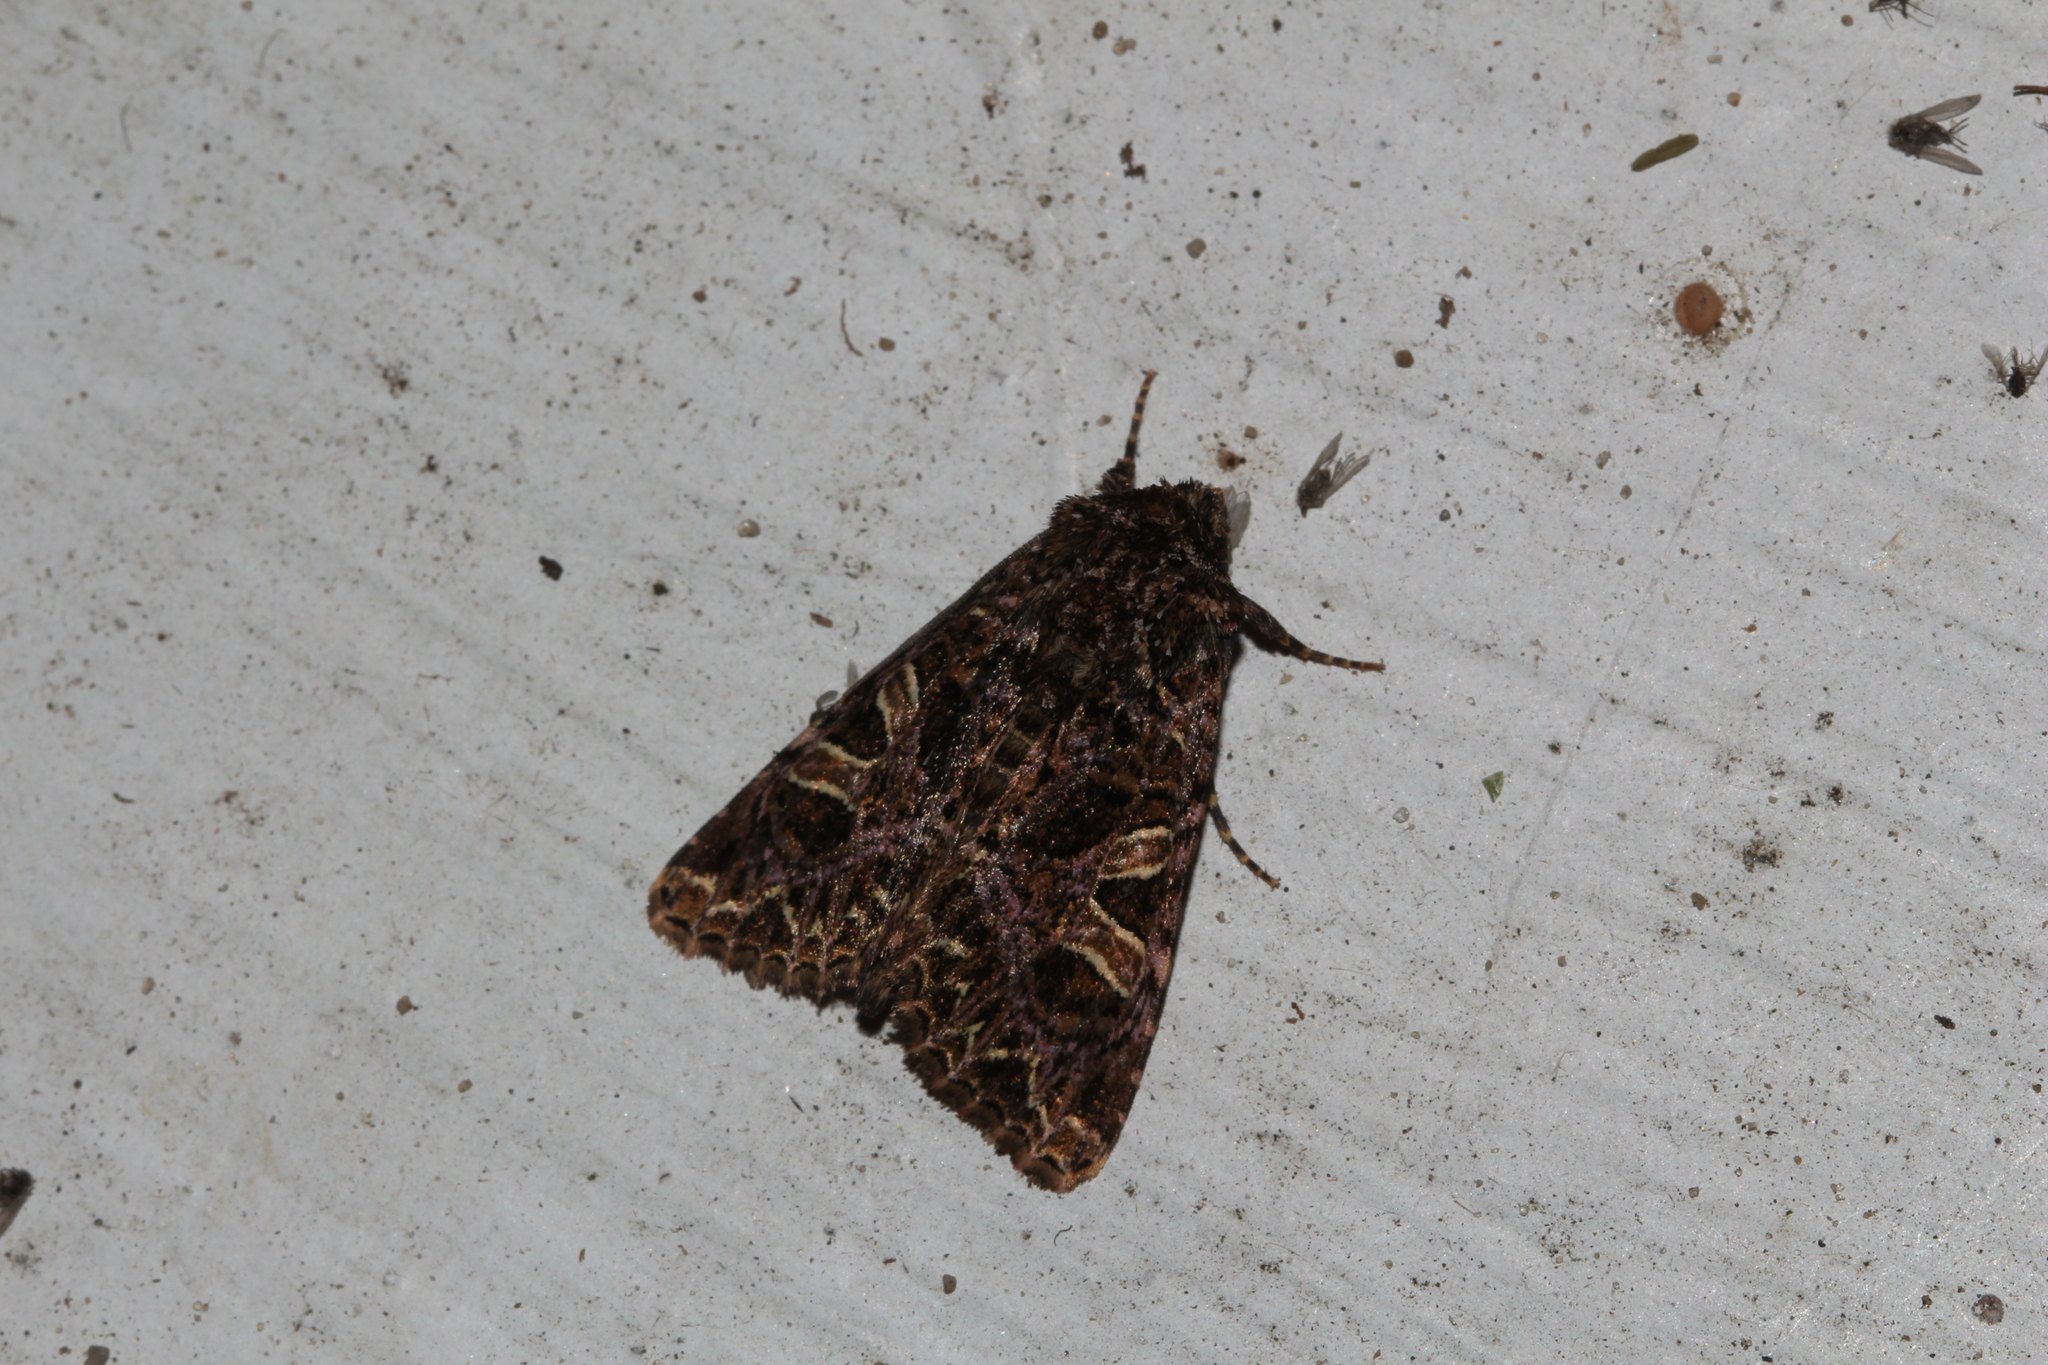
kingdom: Animalia
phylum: Arthropoda
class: Insecta
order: Lepidoptera
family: Noctuidae
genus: Sideridis
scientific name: Sideridis rivularis
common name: Campion
